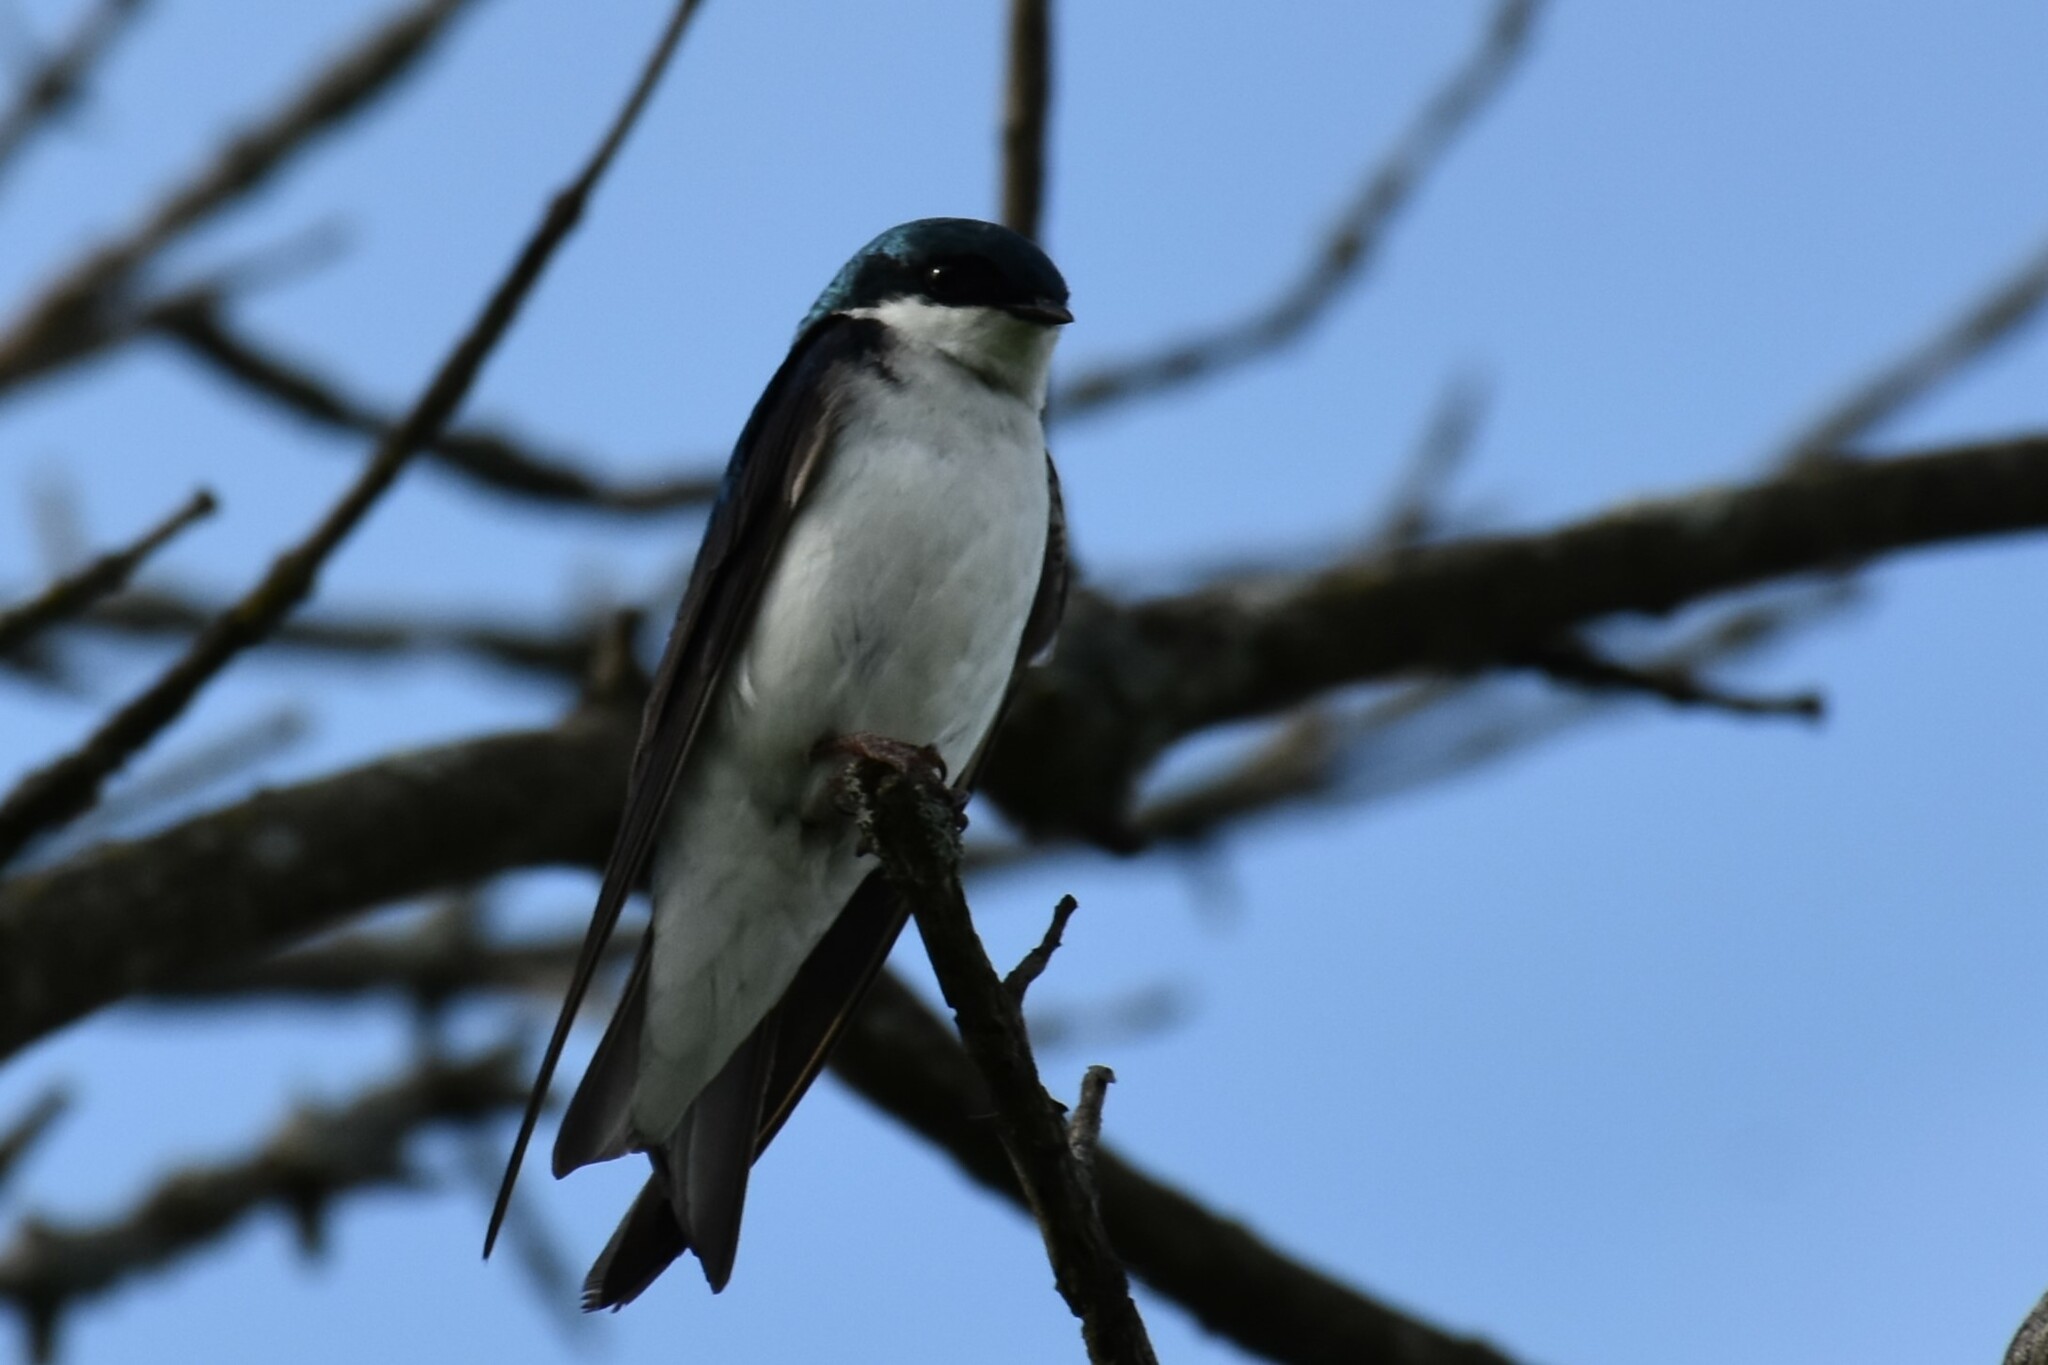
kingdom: Animalia
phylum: Chordata
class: Aves
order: Passeriformes
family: Hirundinidae
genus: Tachycineta
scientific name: Tachycineta bicolor
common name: Tree swallow
